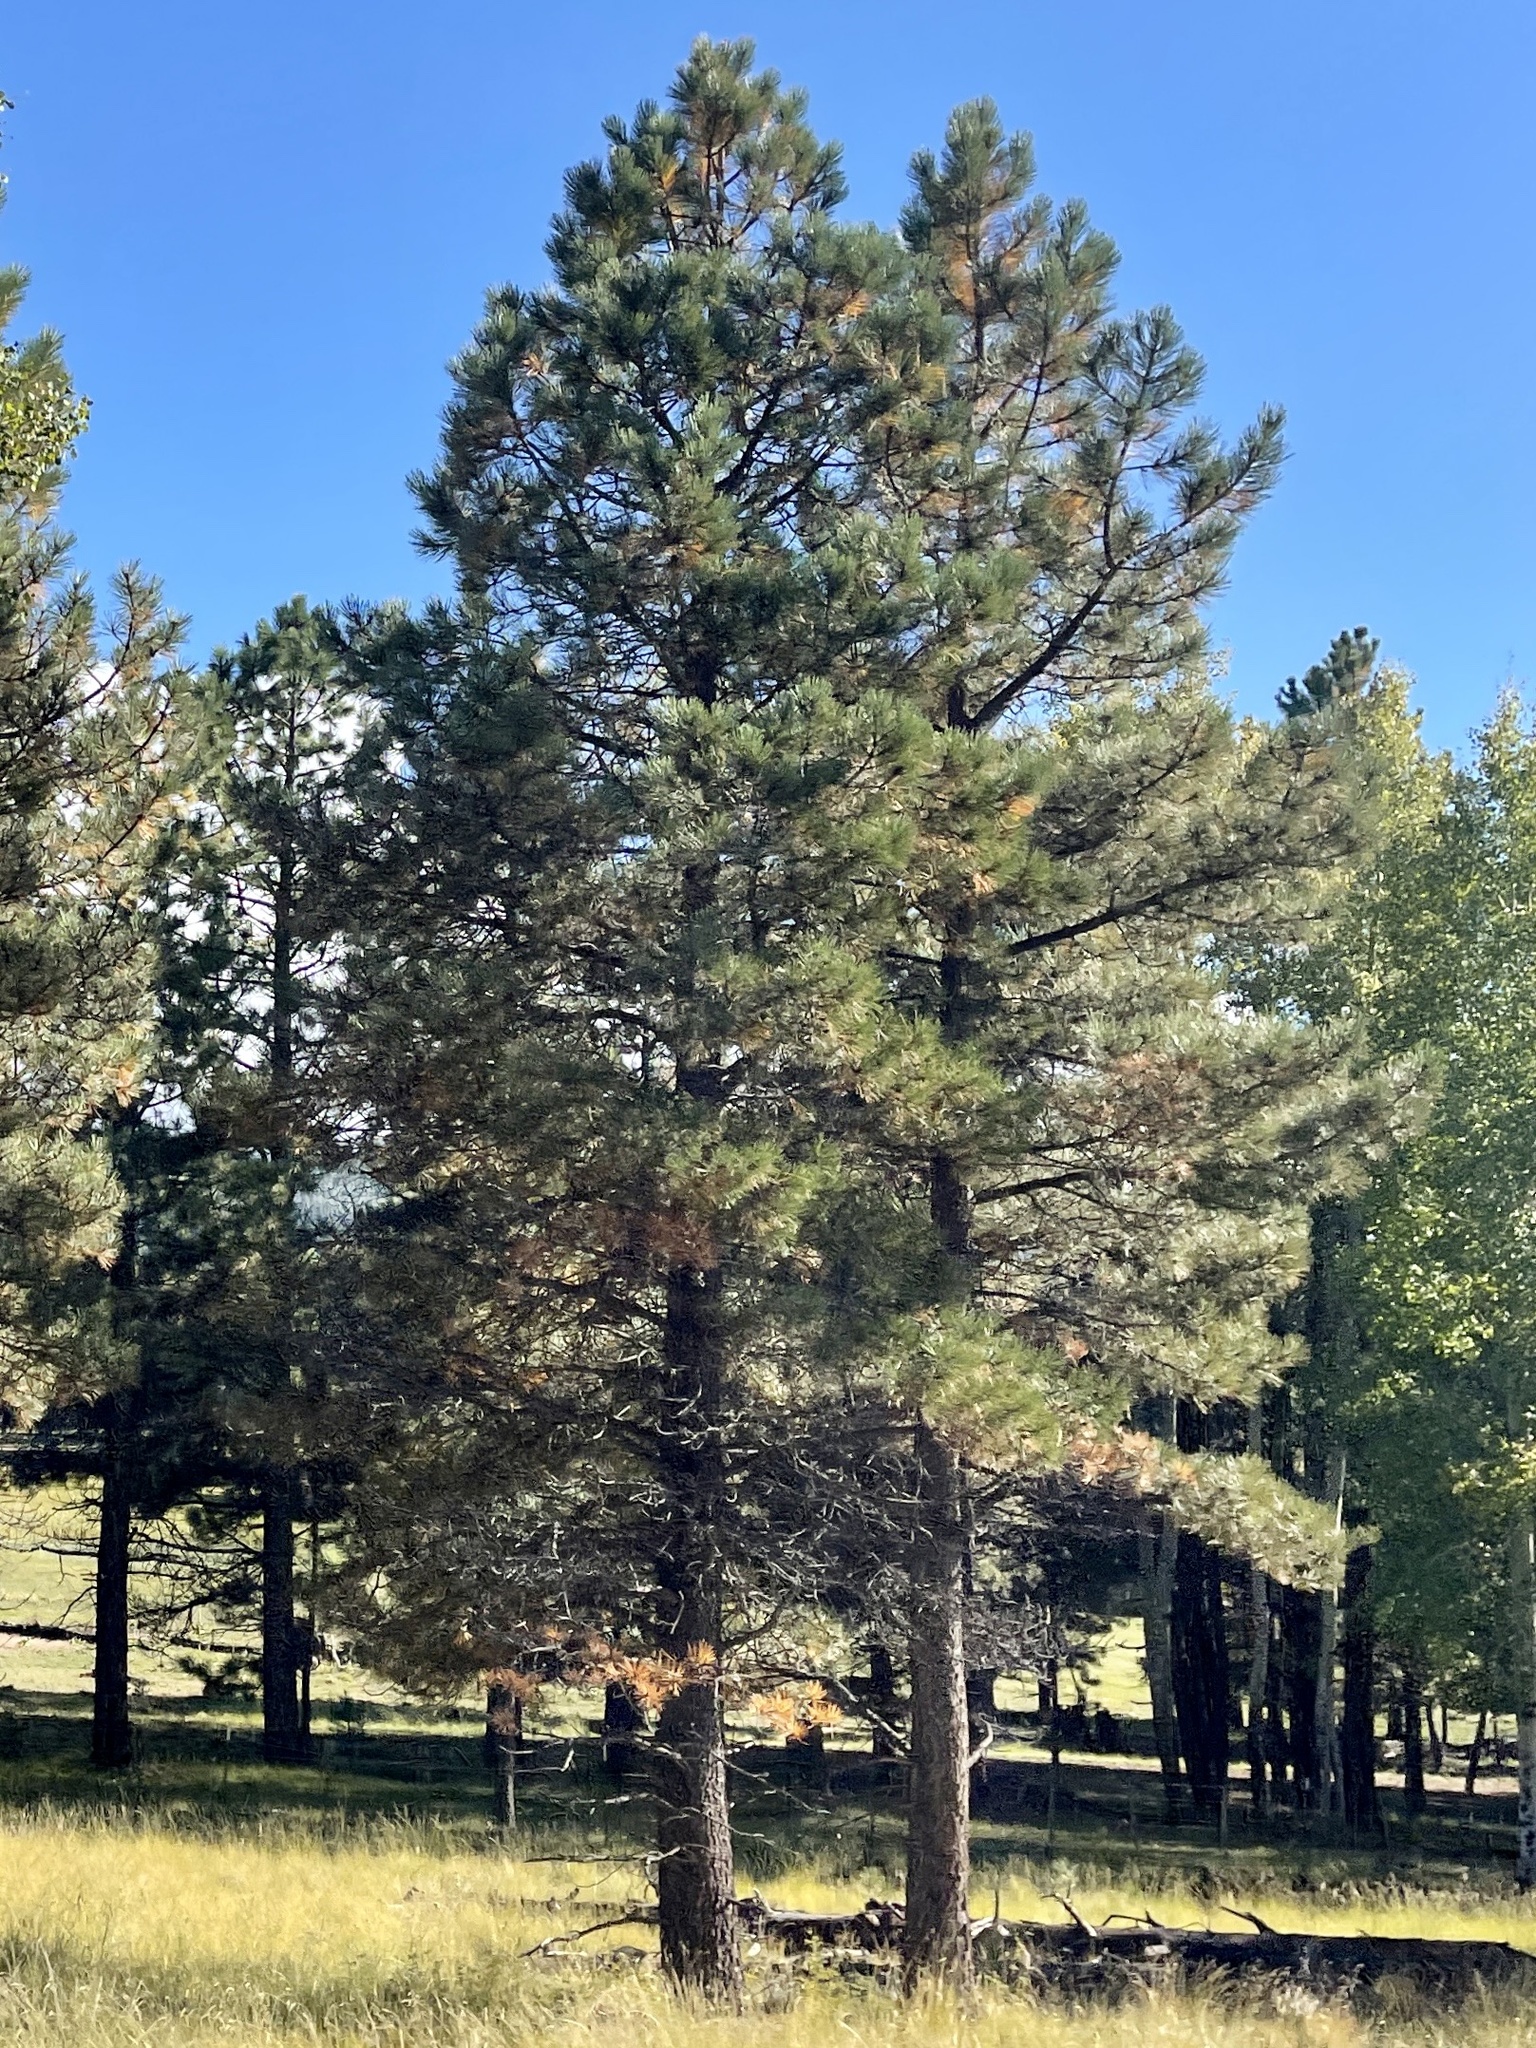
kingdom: Plantae
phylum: Tracheophyta
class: Pinopsida
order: Pinales
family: Pinaceae
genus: Pinus
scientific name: Pinus ponderosa
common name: Western yellow-pine
